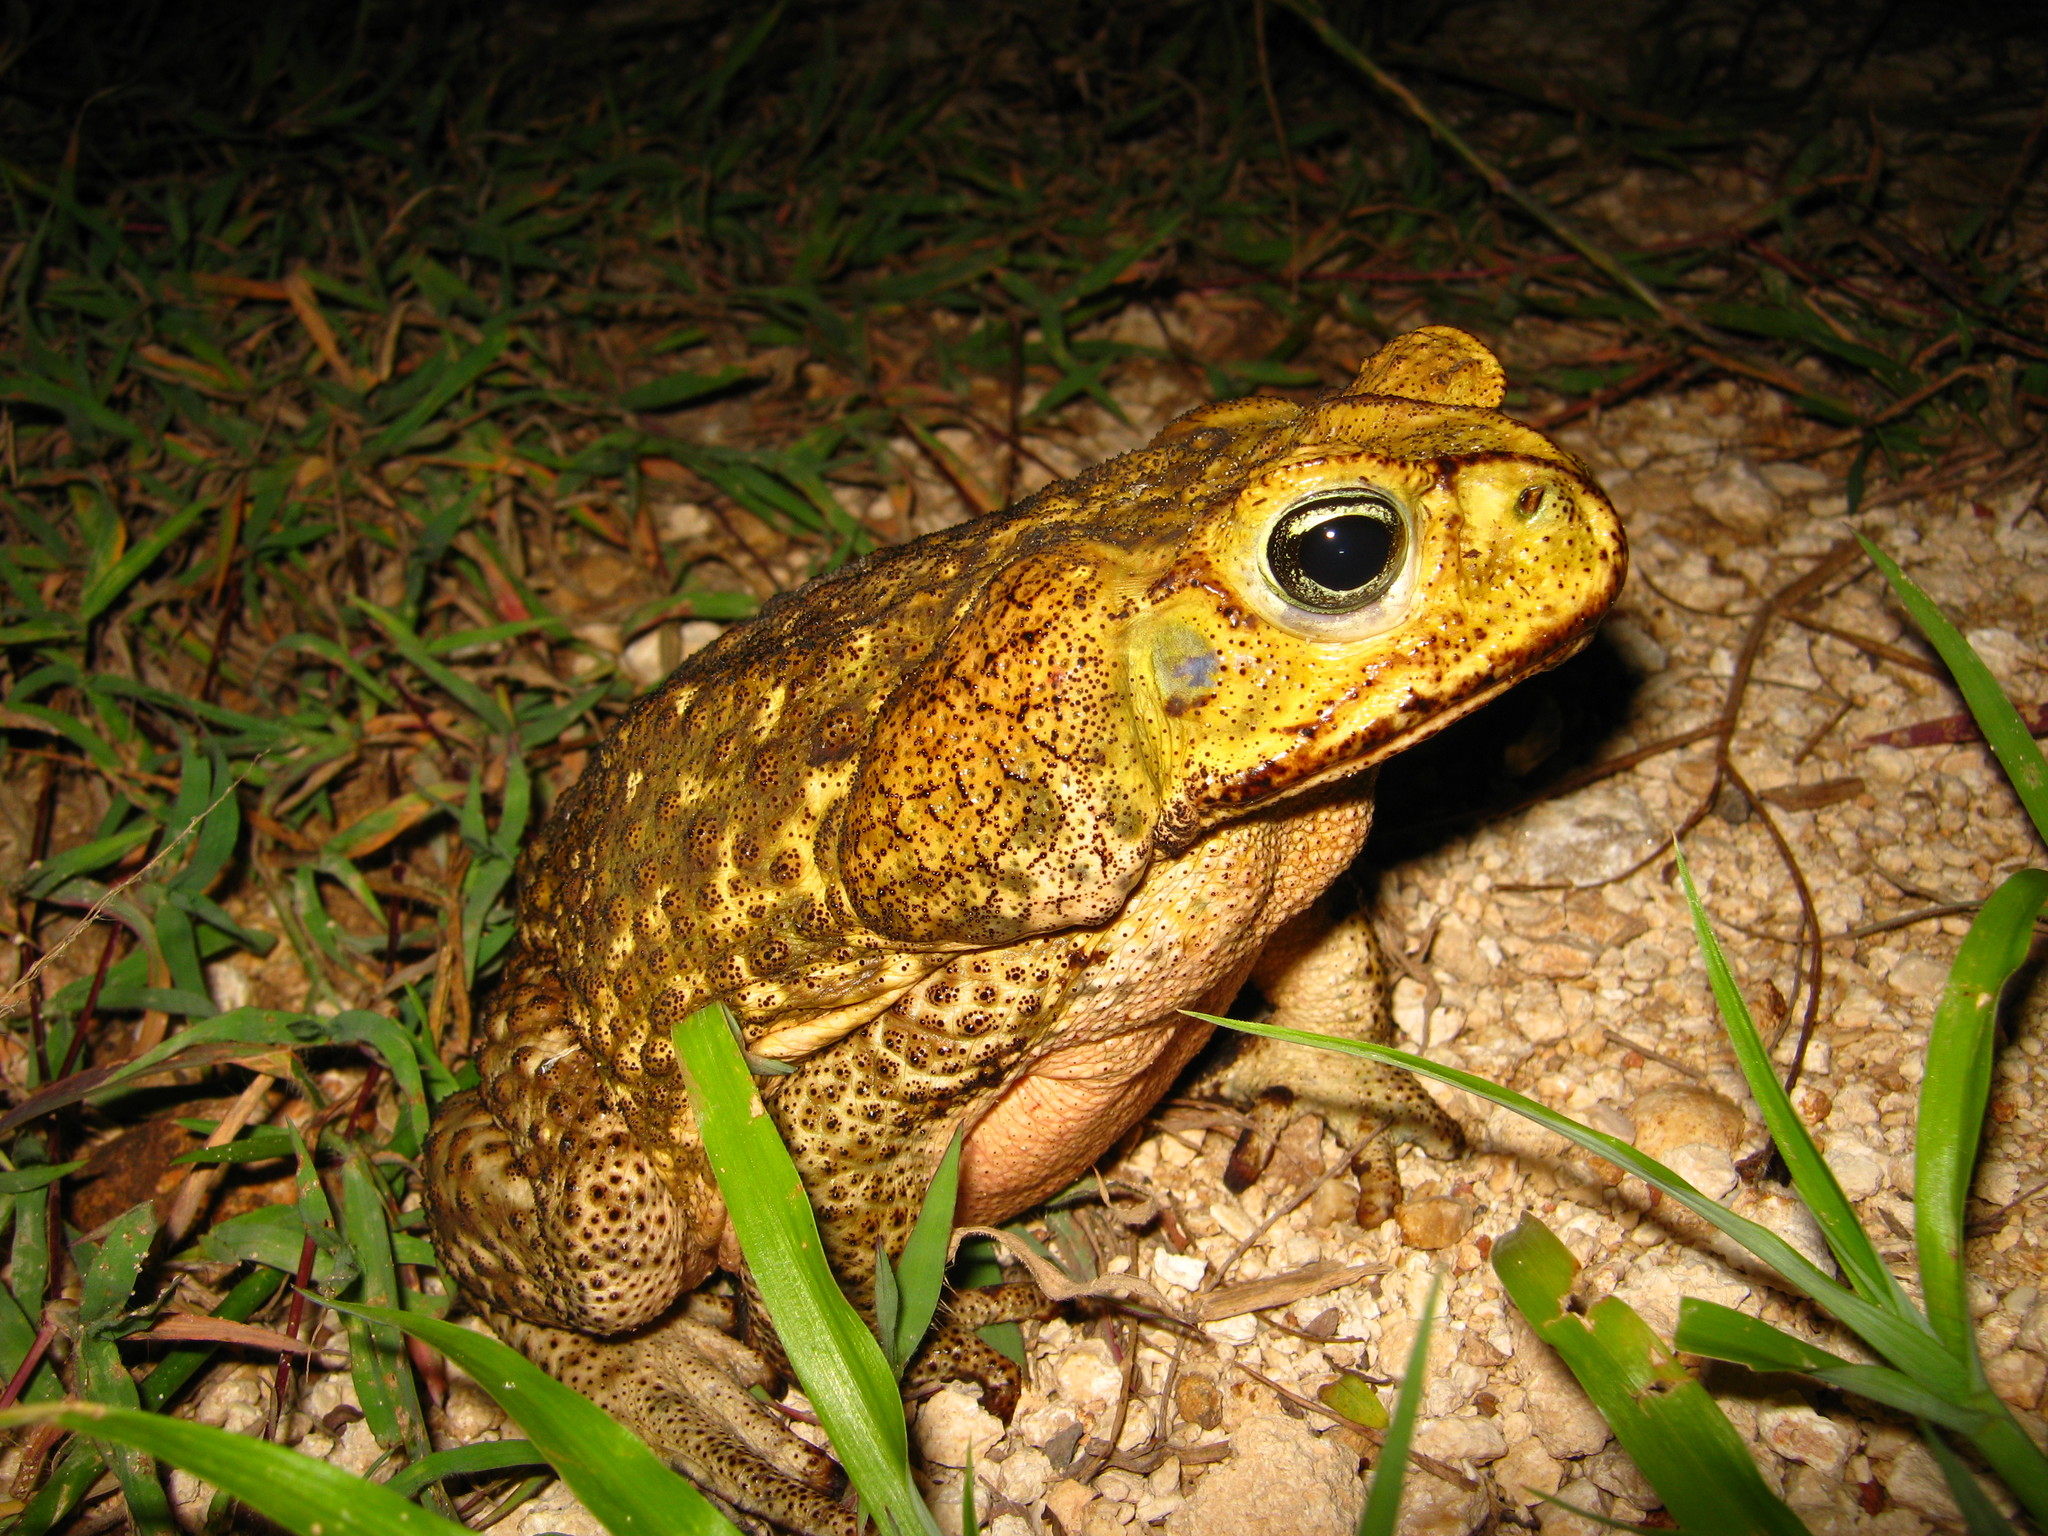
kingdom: Animalia
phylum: Chordata
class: Amphibia
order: Anura
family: Bufonidae
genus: Rhinella
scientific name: Rhinella horribilis
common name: Mesoamerican cane toad
